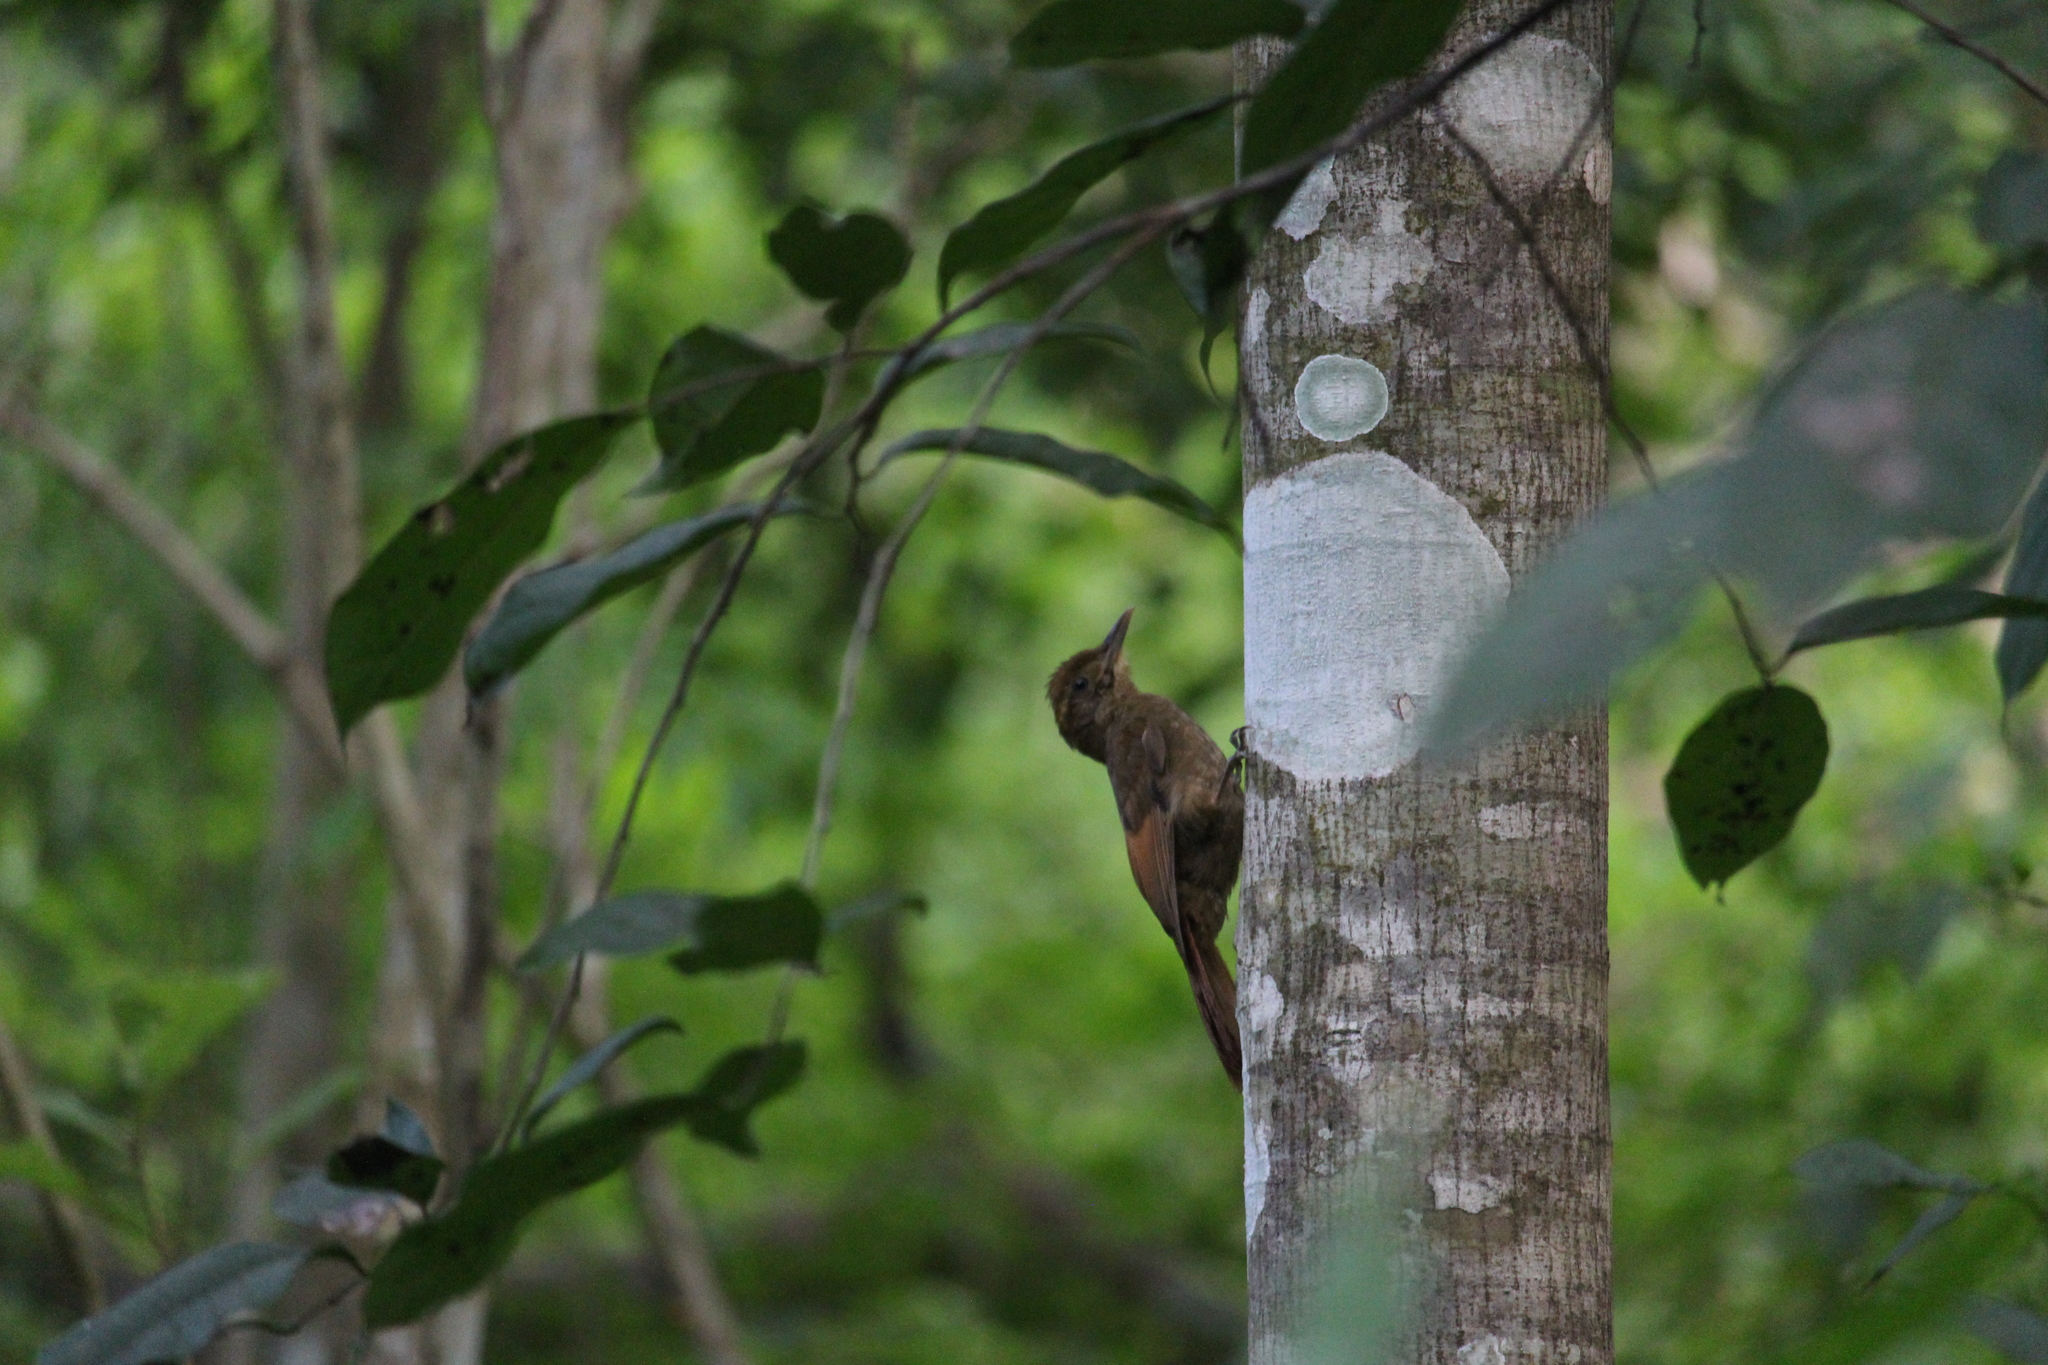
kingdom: Animalia
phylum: Chordata
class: Aves
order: Passeriformes
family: Furnariidae
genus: Dendrocincla
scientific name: Dendrocincla anabatina
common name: Tawny-winged woodcreeper
